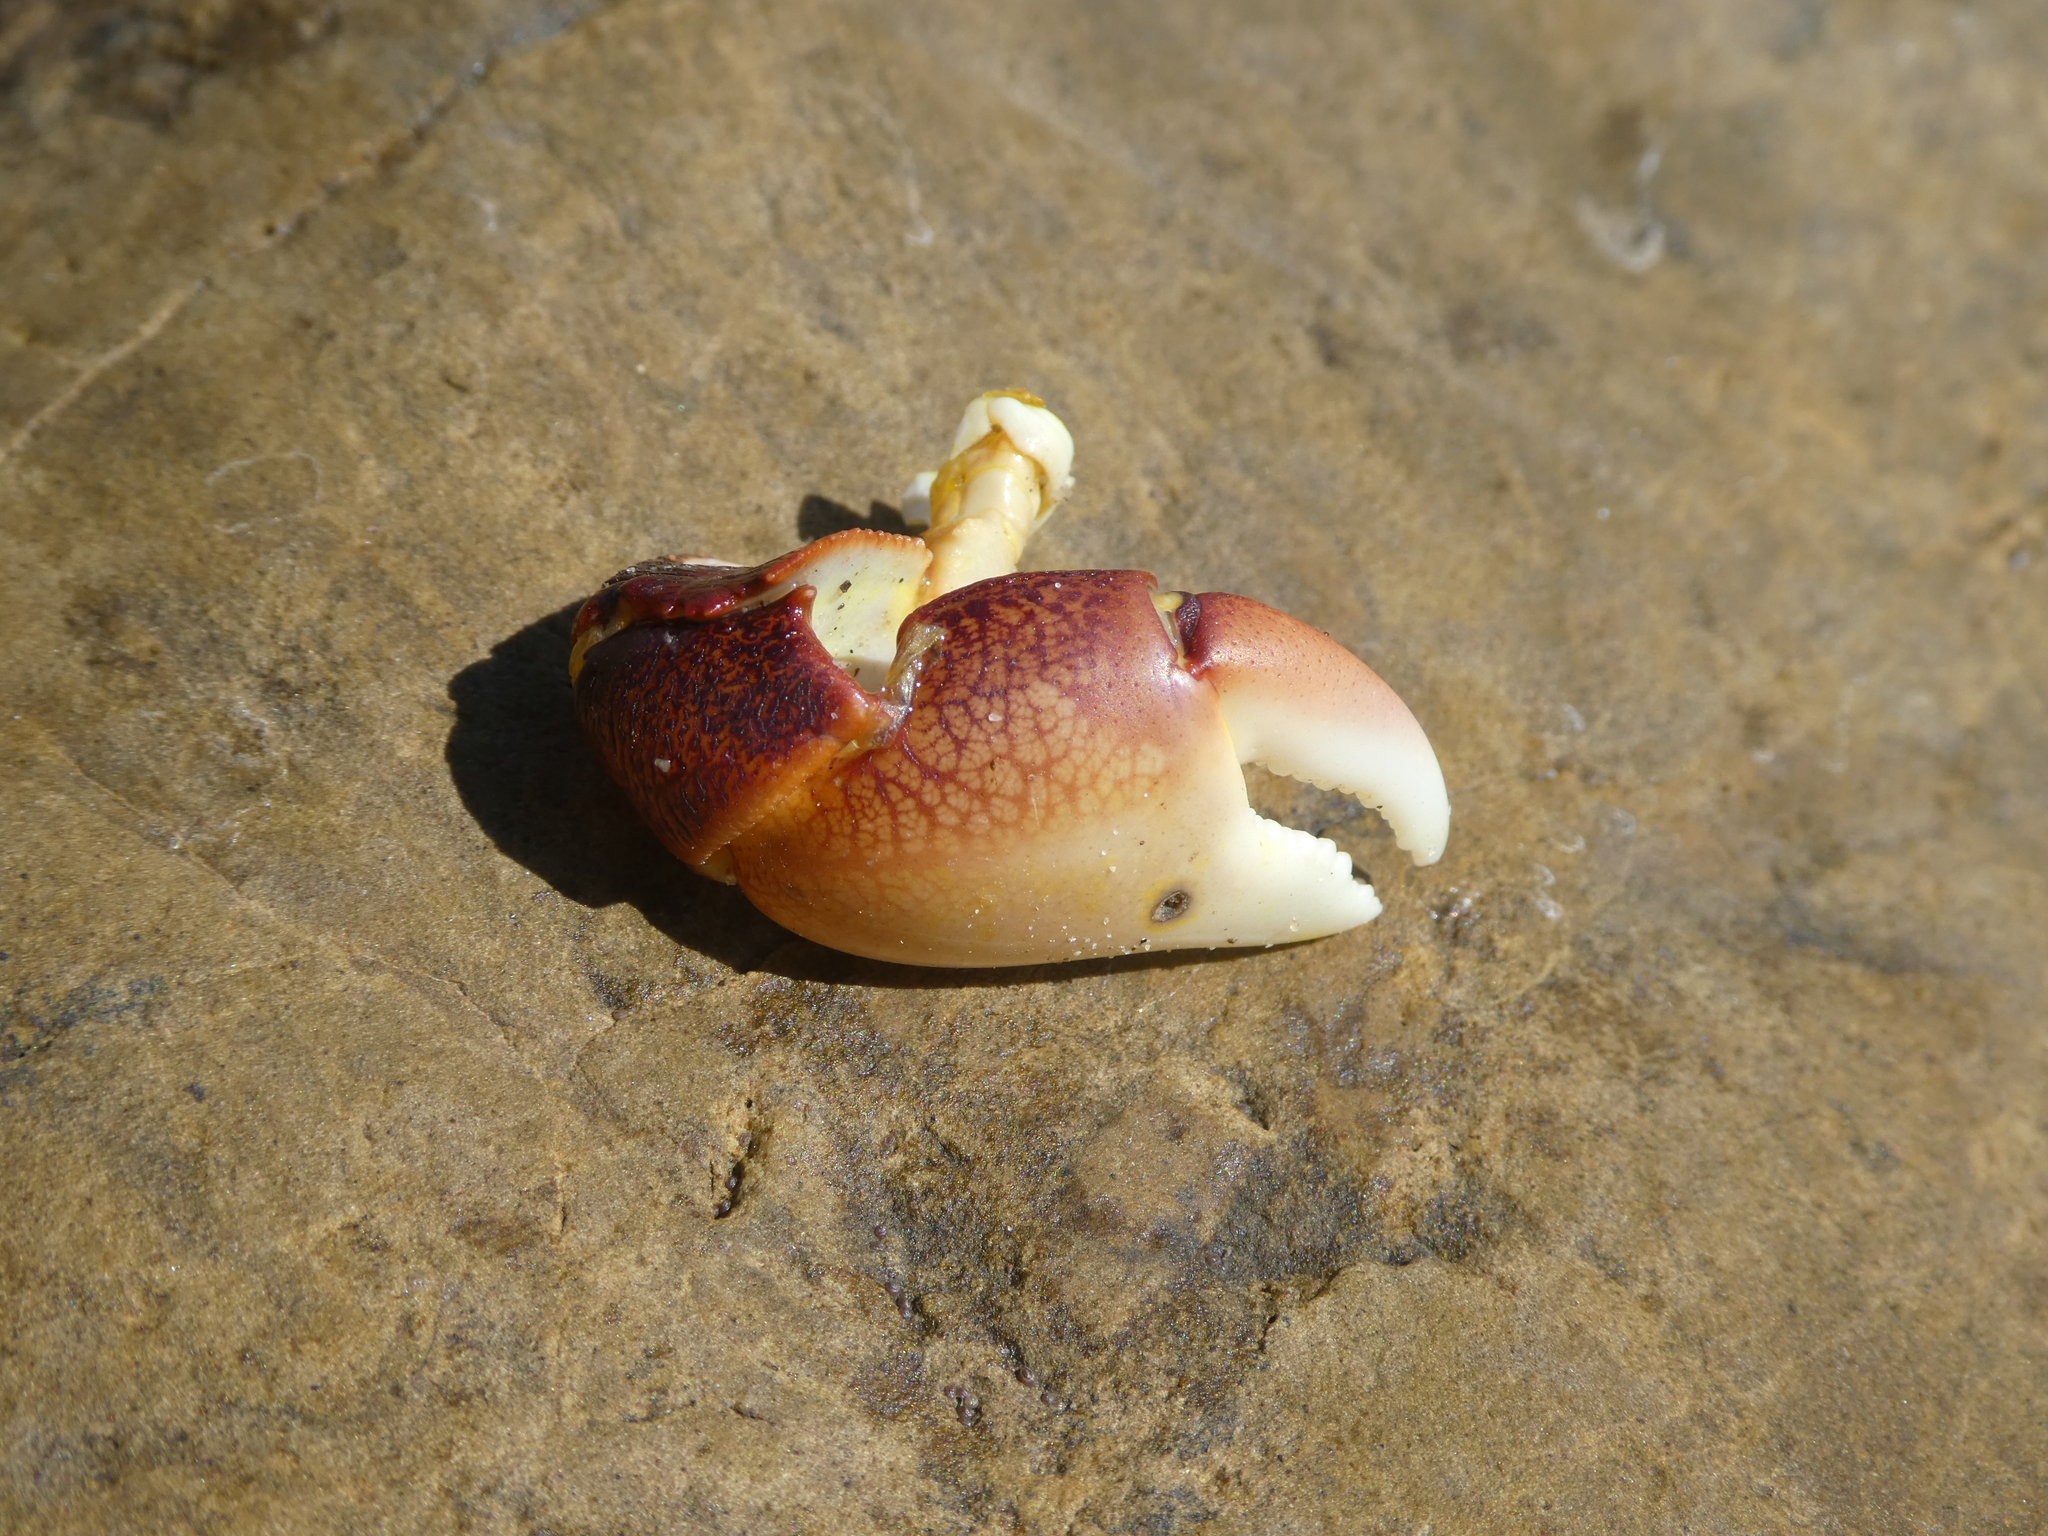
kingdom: Animalia
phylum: Arthropoda
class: Malacostraca
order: Decapoda
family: Grapsidae
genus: Pachygrapsus
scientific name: Pachygrapsus crassipes
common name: Striped shore crab
